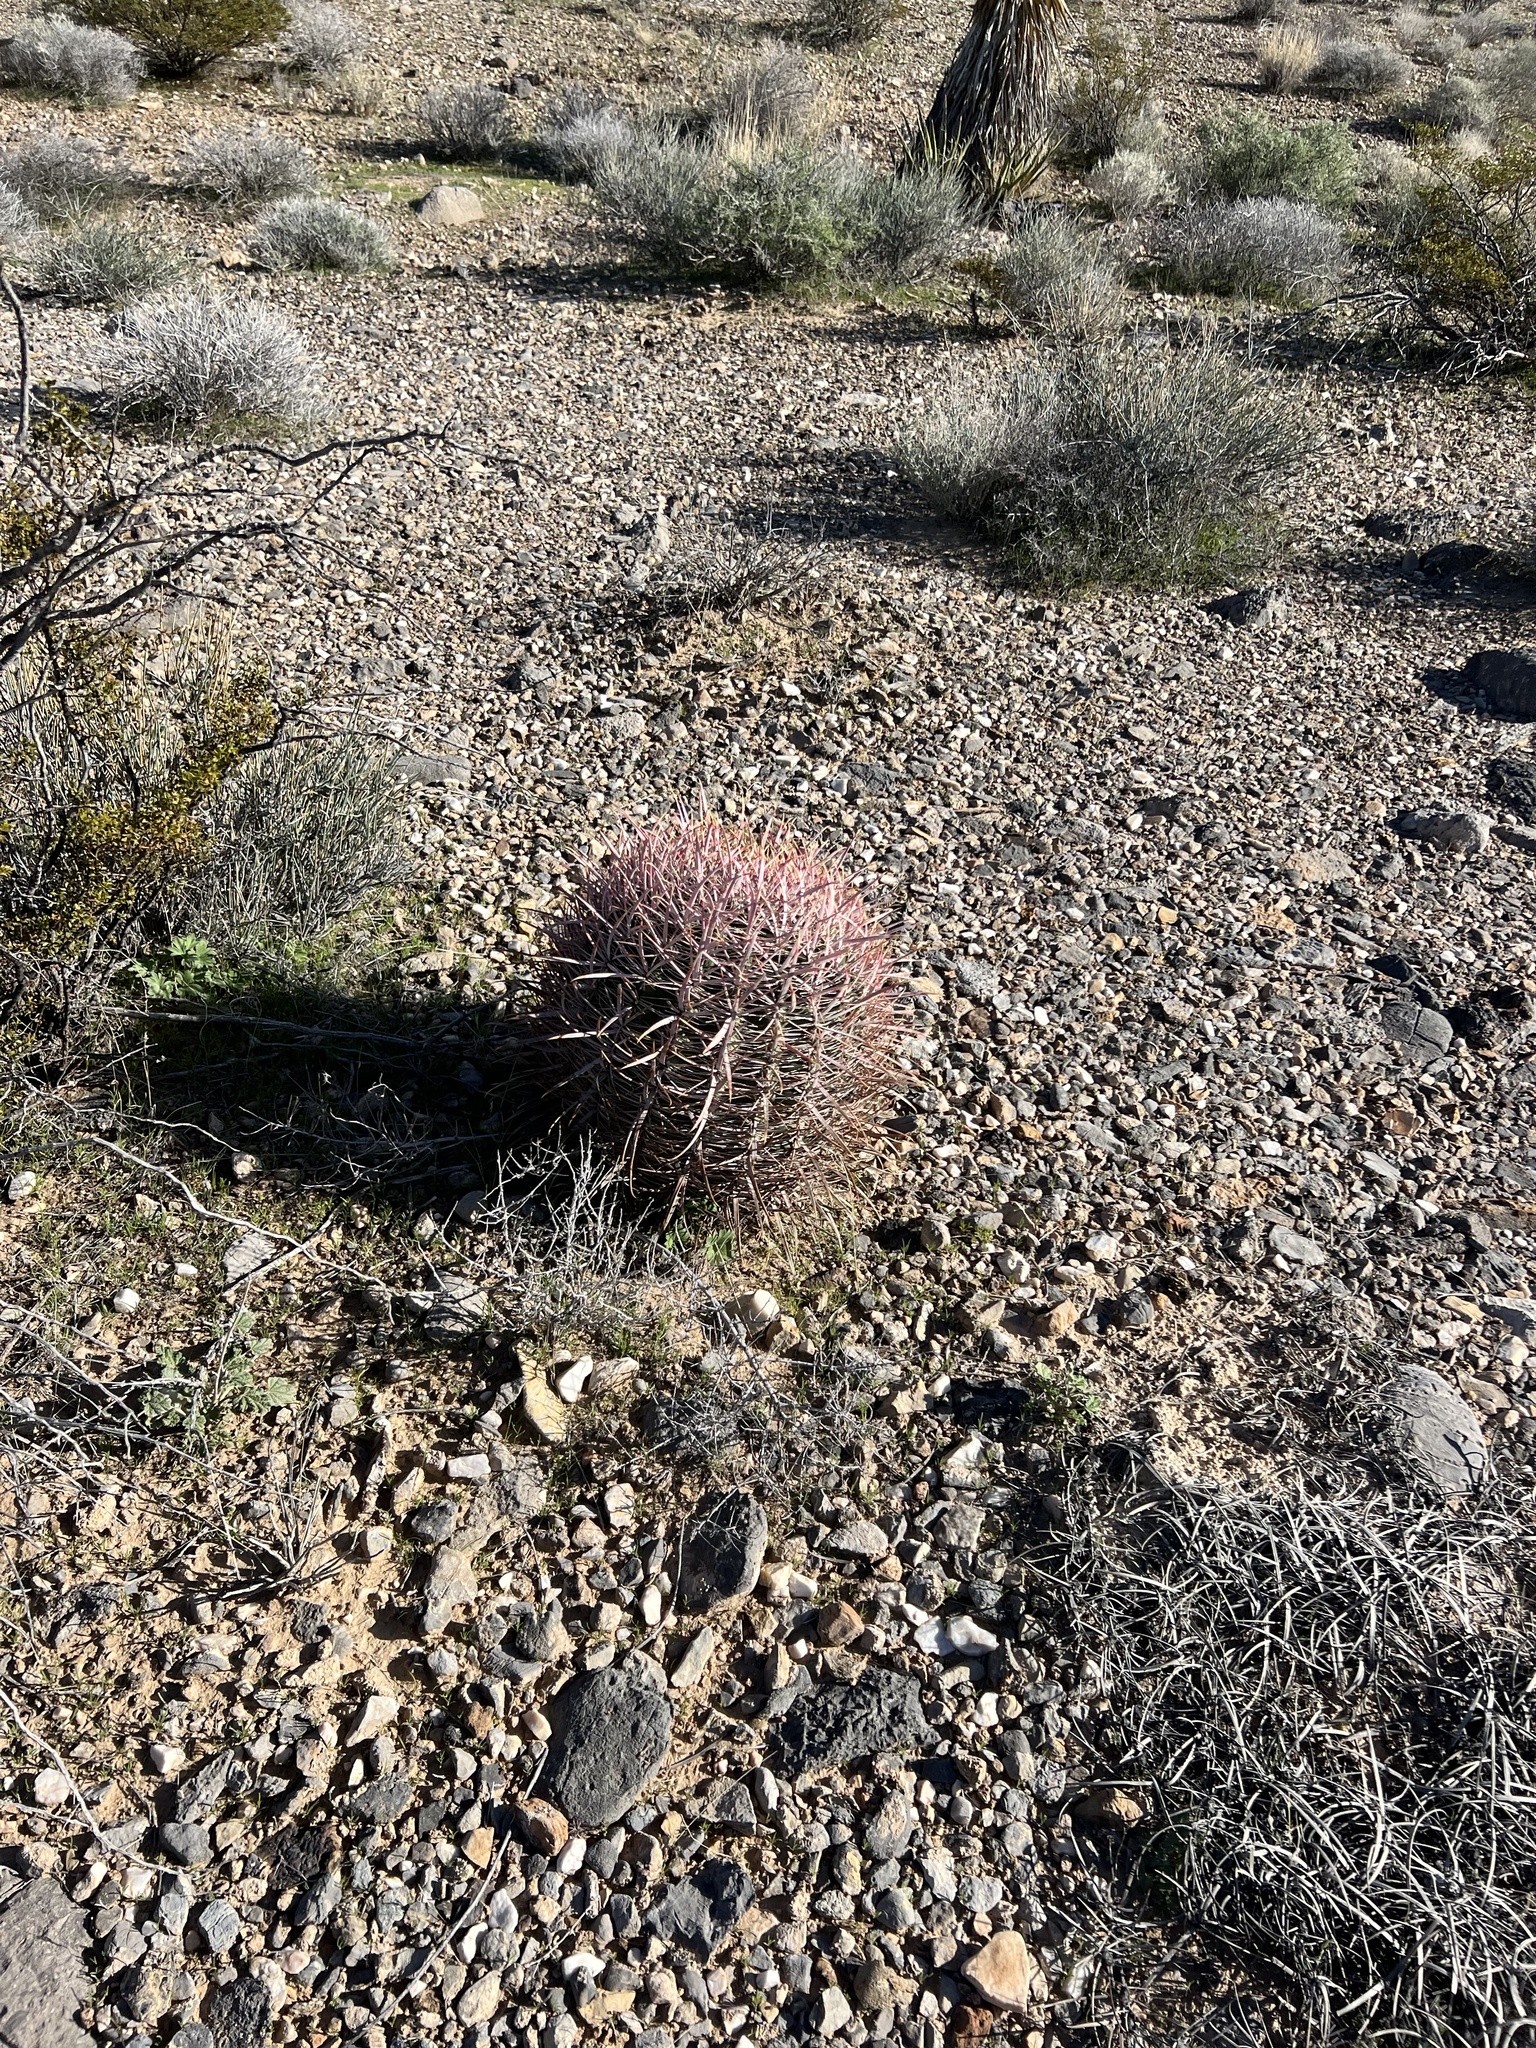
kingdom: Plantae
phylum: Tracheophyta
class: Magnoliopsida
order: Caryophyllales
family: Cactaceae
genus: Ferocactus
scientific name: Ferocactus cylindraceus
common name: California barrel cactus
